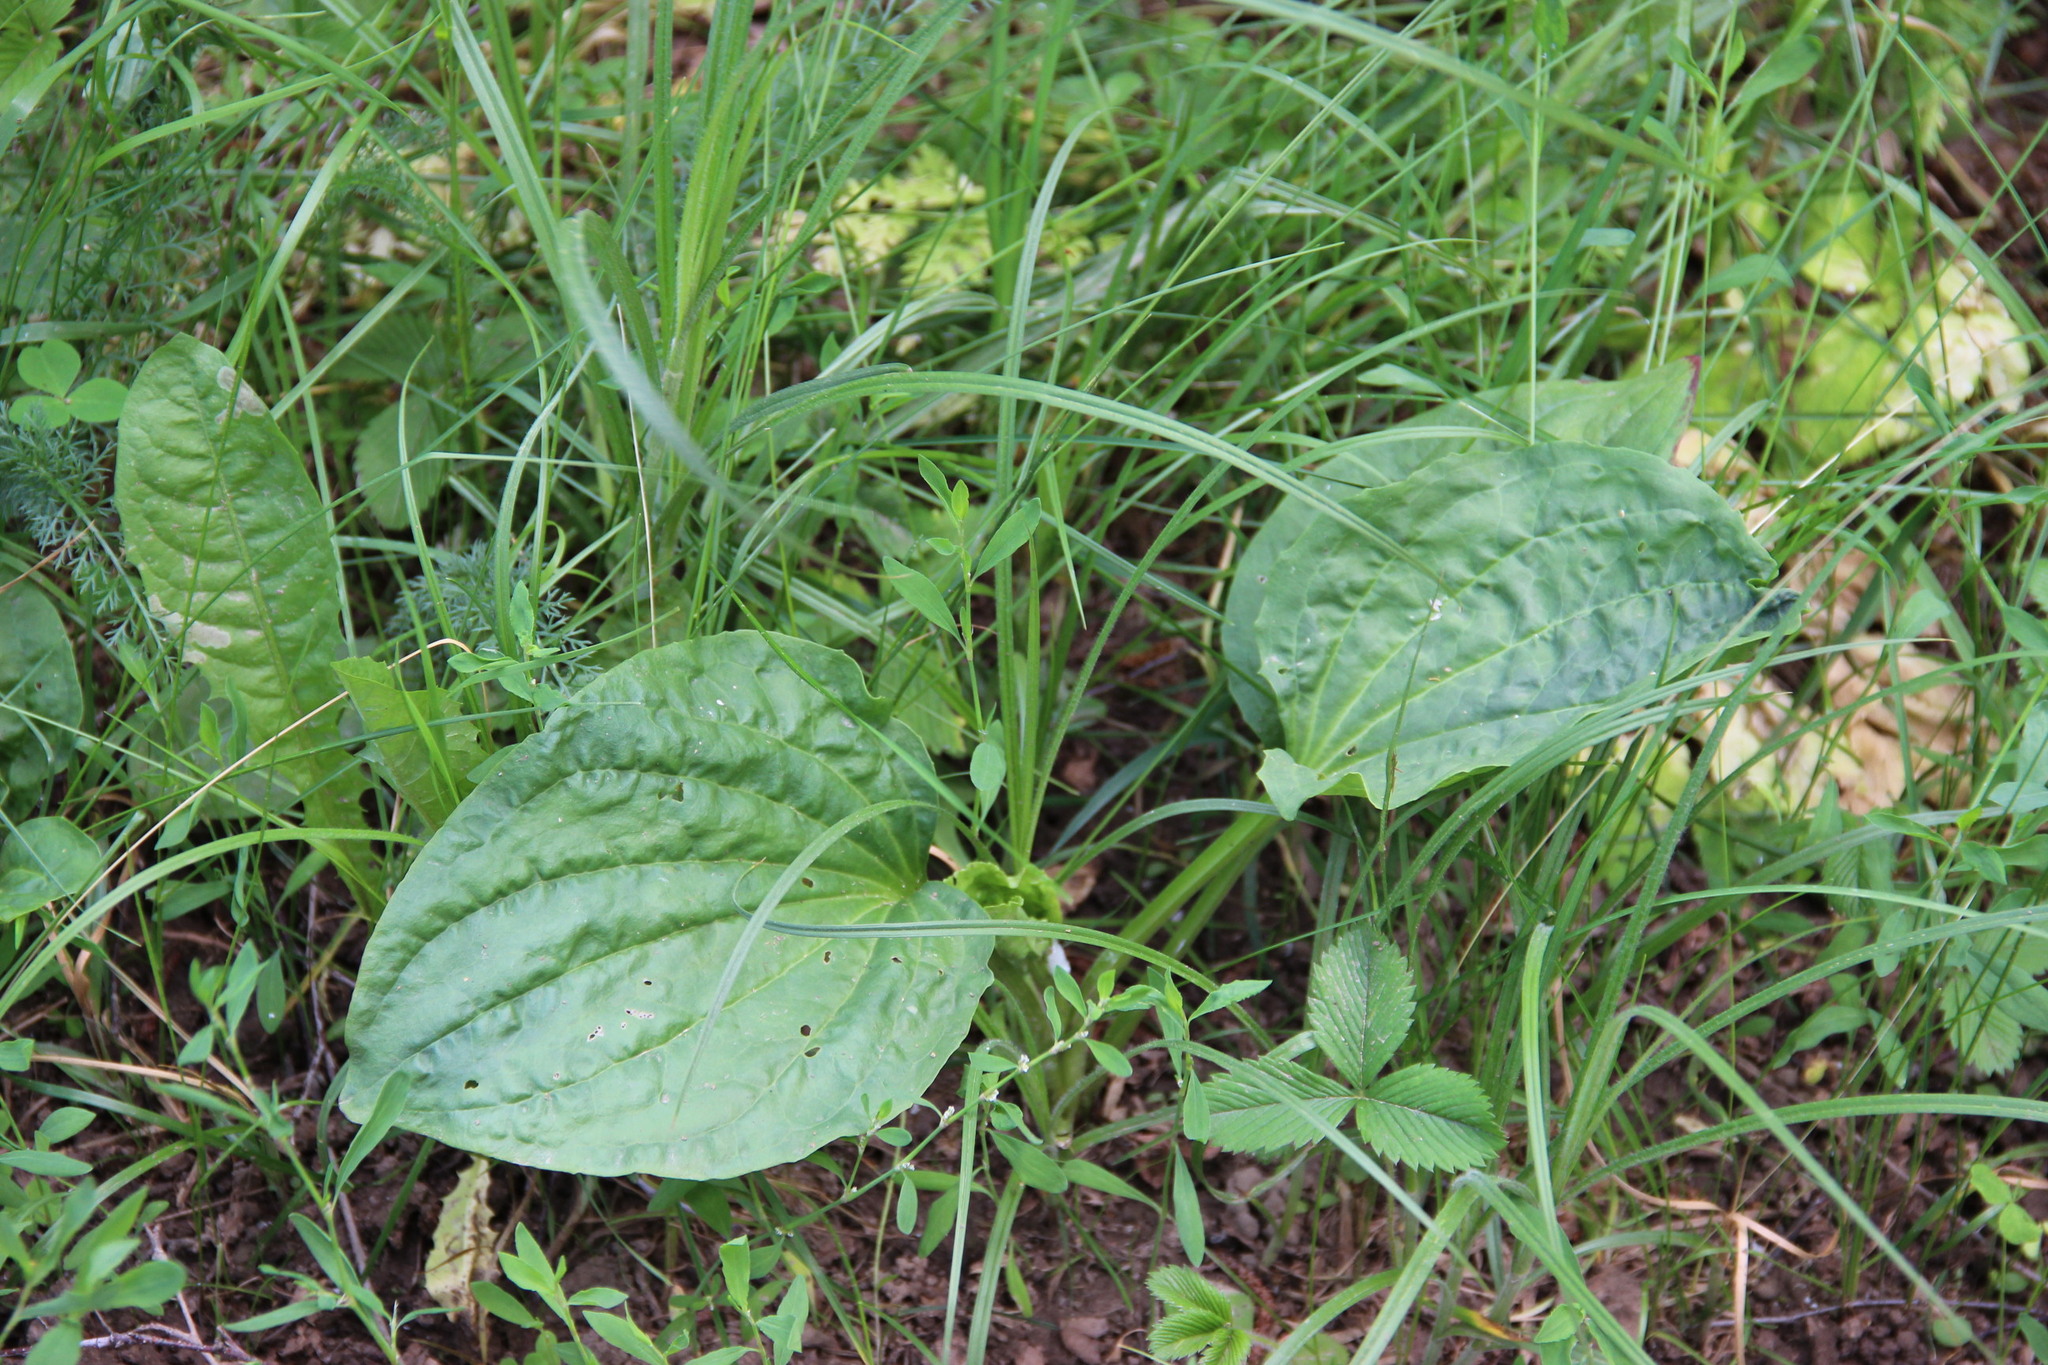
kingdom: Plantae
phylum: Tracheophyta
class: Magnoliopsida
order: Lamiales
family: Plantaginaceae
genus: Plantago
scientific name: Plantago major
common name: Common plantain
